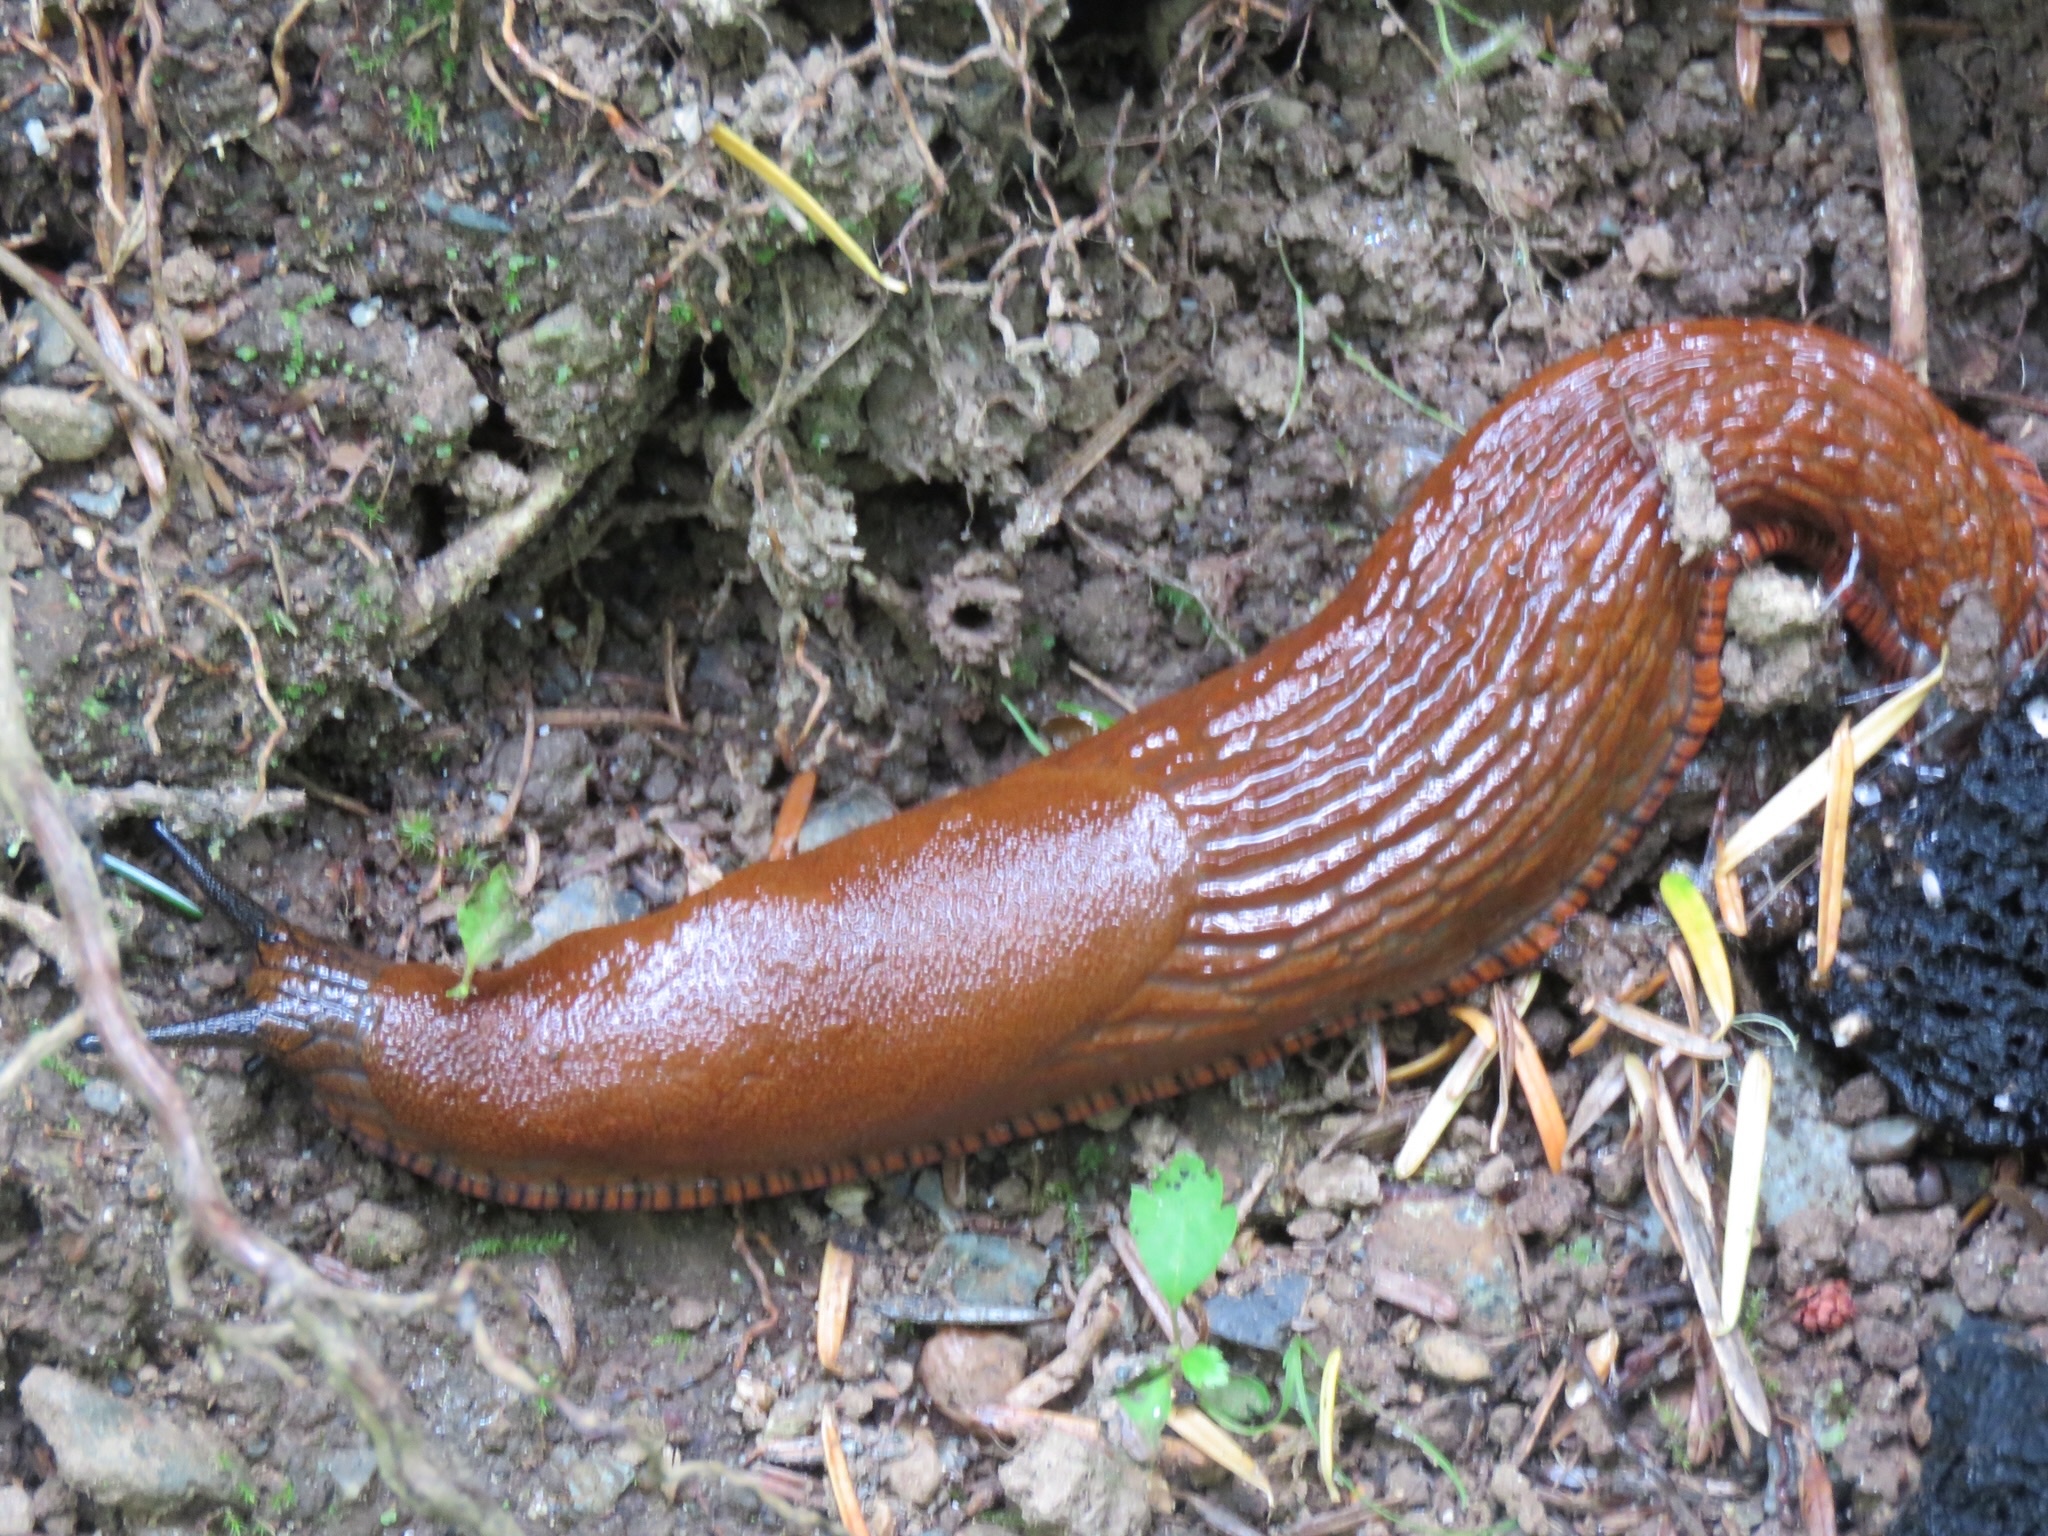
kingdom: Animalia
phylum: Mollusca
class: Gastropoda
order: Stylommatophora
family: Arionidae
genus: Arion
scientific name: Arion rufus
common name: Chocolate arion
